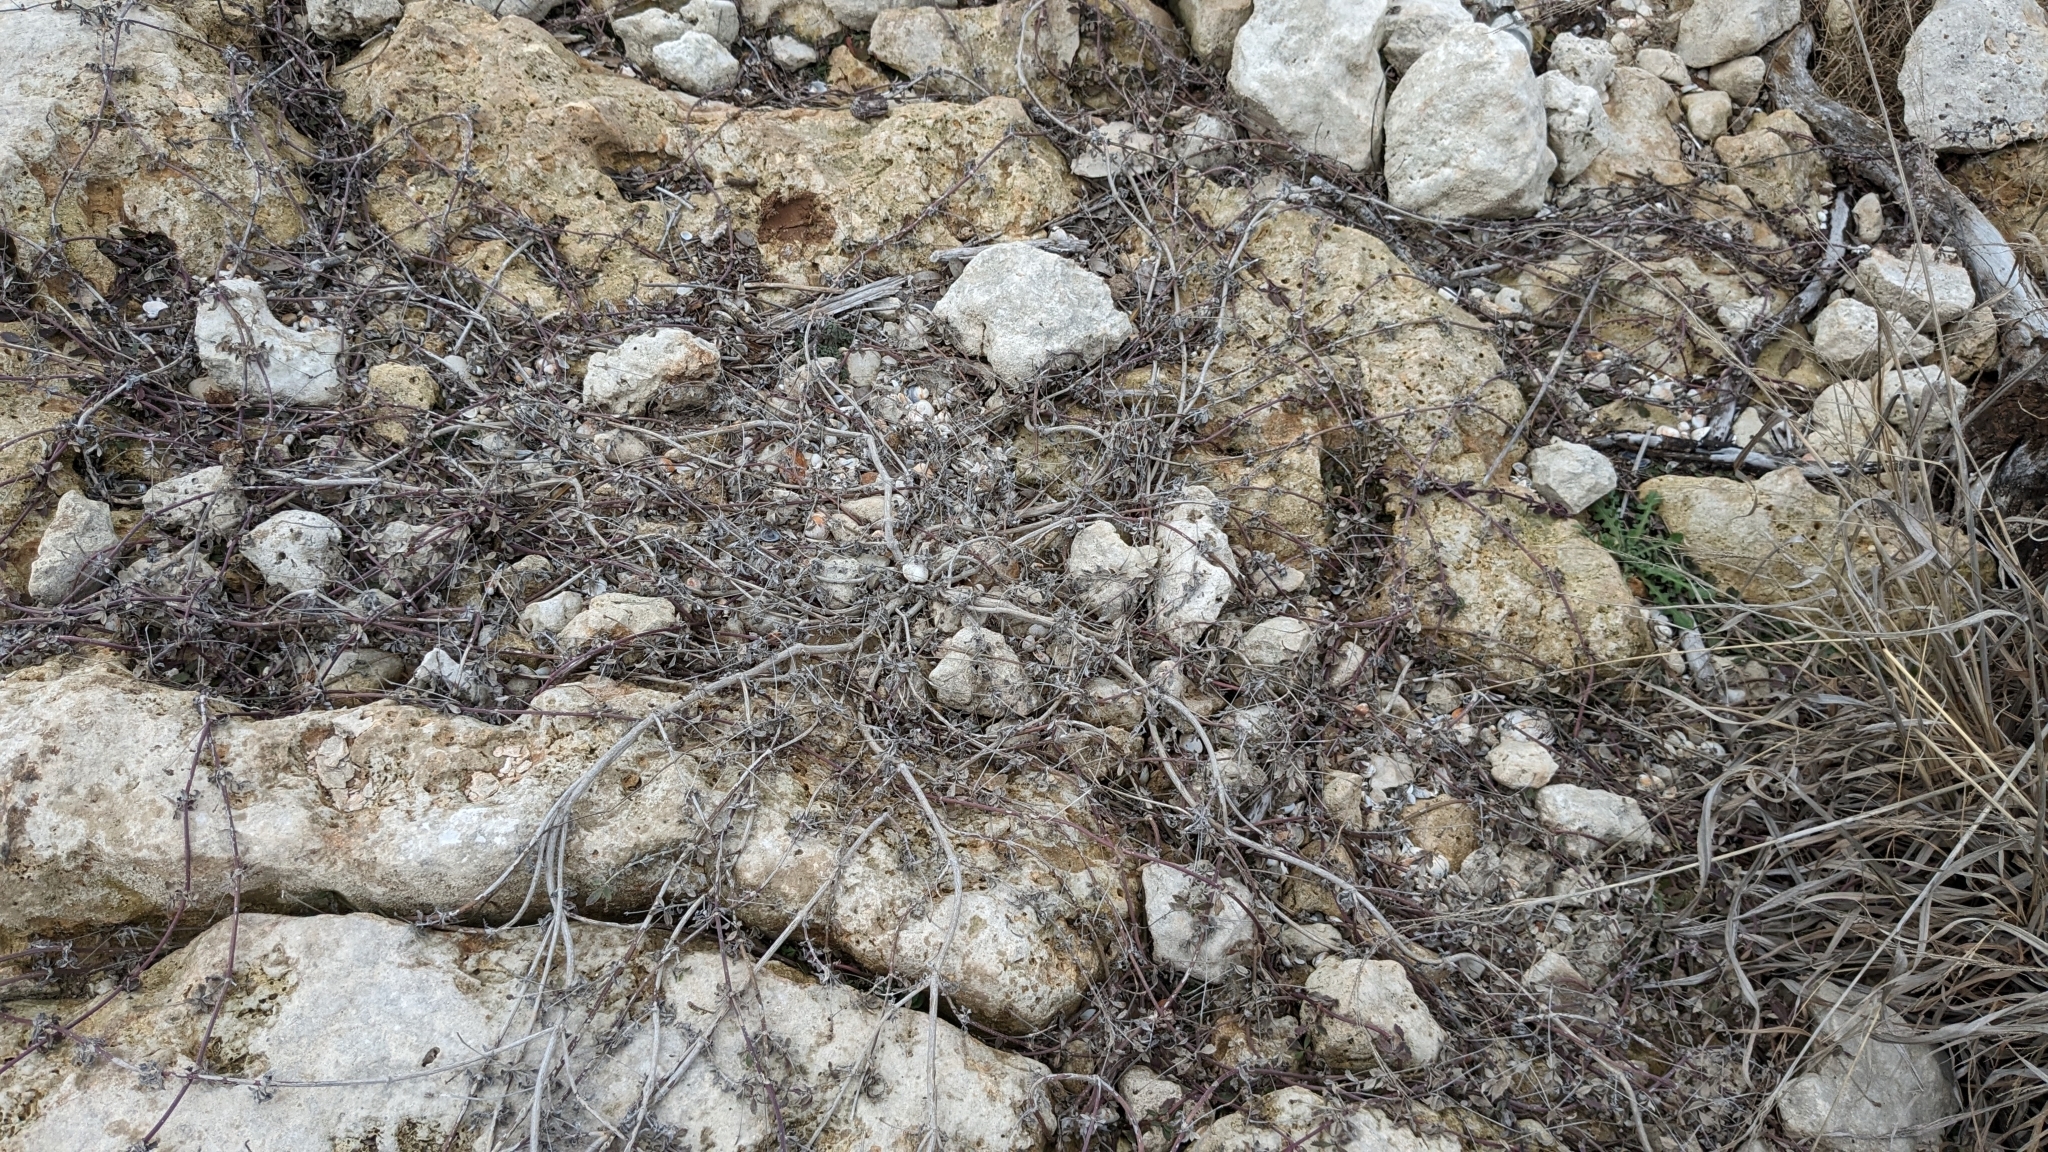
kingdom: Plantae
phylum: Tracheophyta
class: Magnoliopsida
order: Lamiales
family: Verbenaceae
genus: Phyla
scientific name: Phyla nodiflora
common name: Frogfruit
